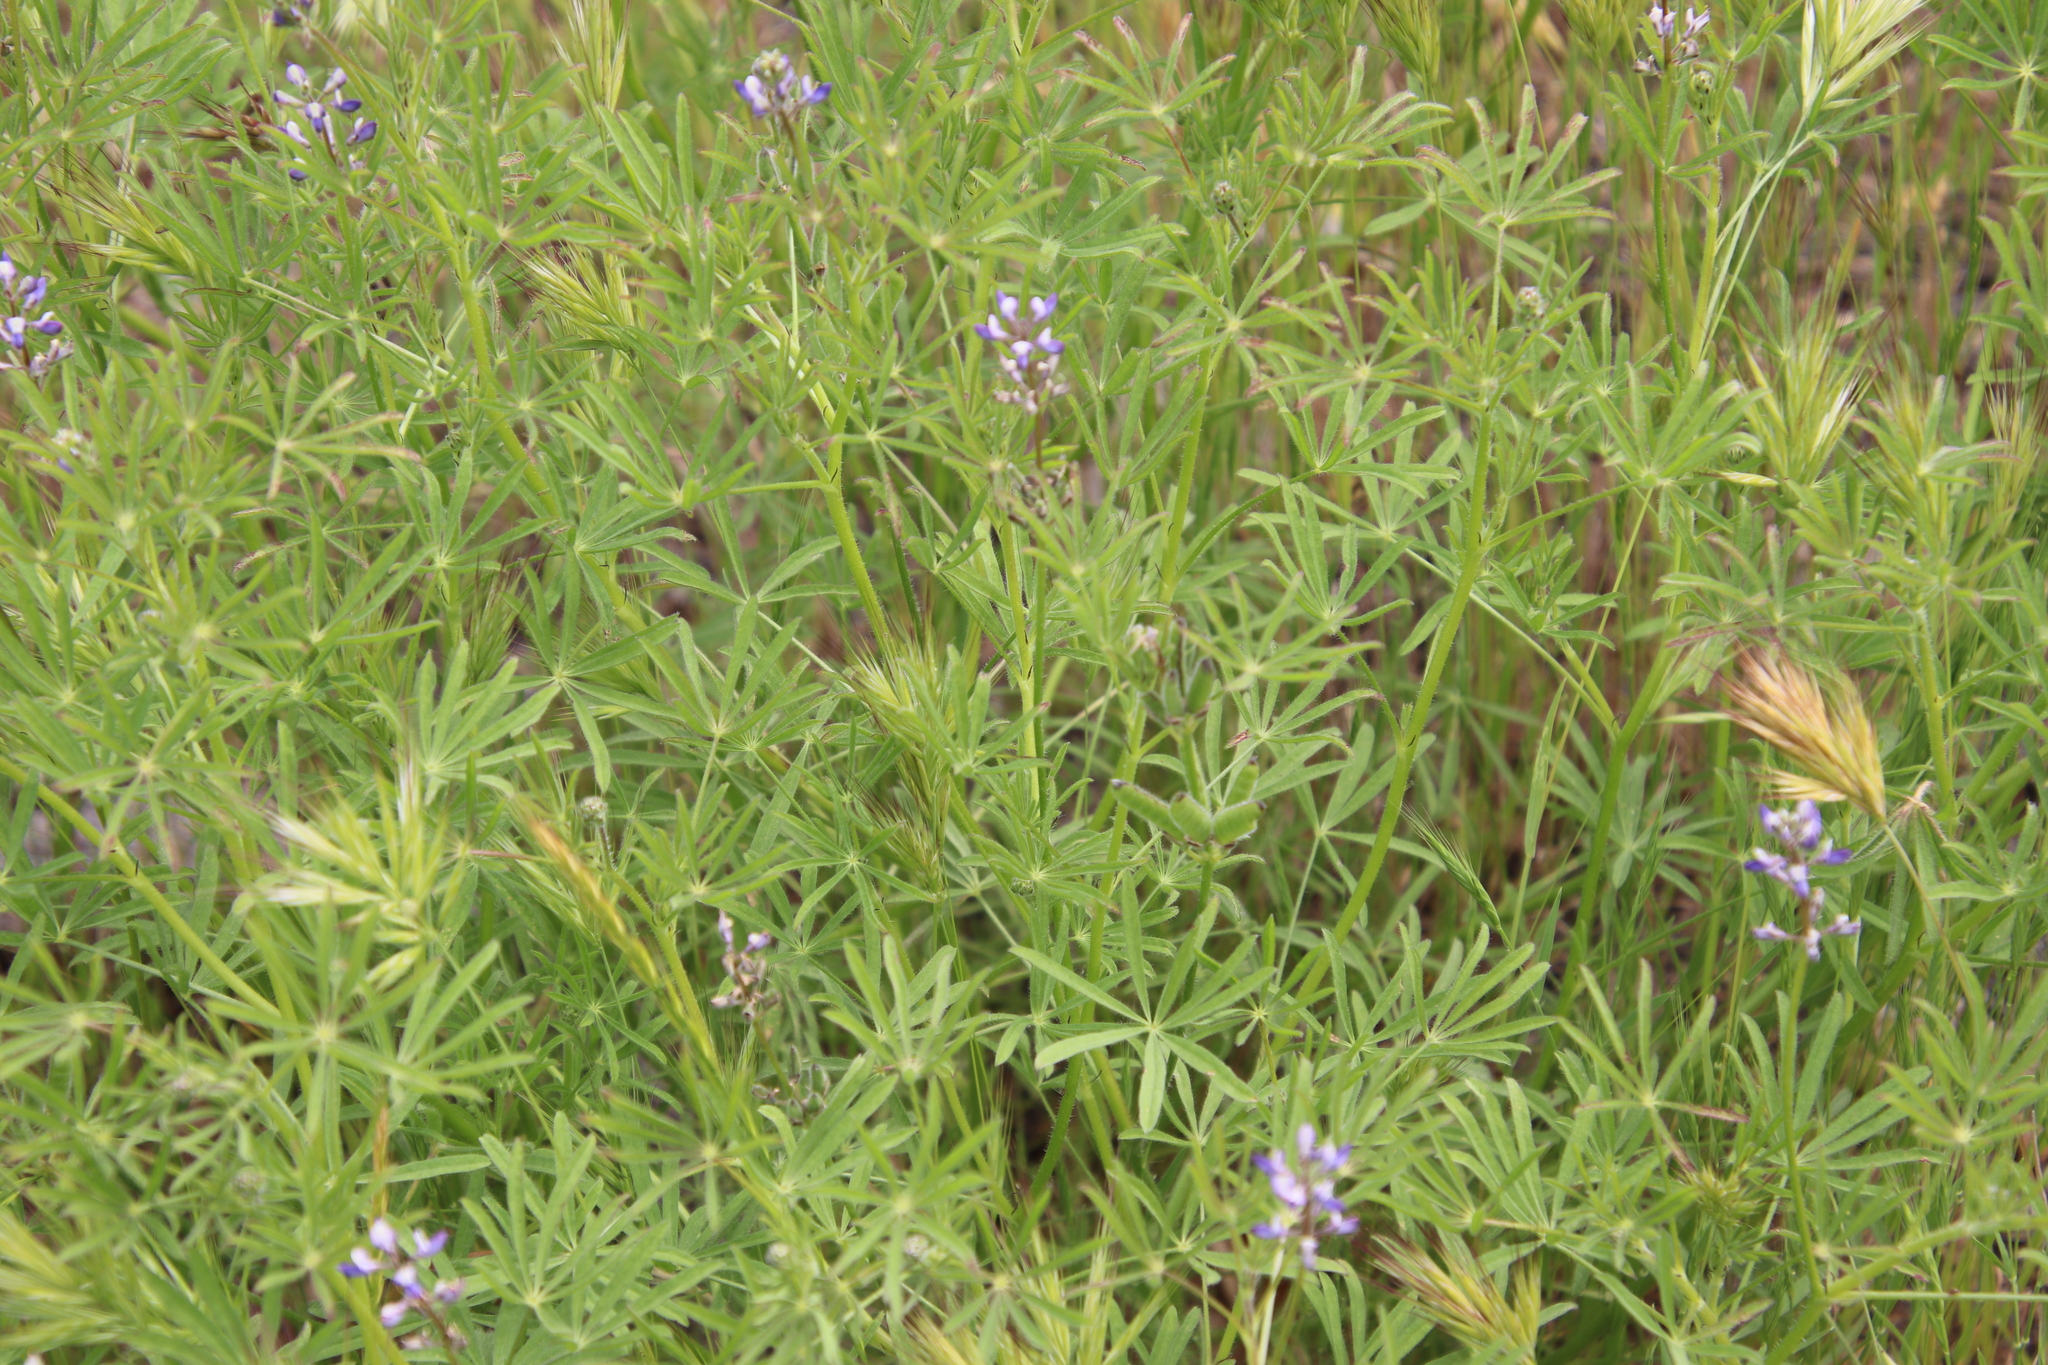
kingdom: Plantae
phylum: Tracheophyta
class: Magnoliopsida
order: Fabales
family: Fabaceae
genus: Lupinus
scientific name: Lupinus bicolor
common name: Miniature lupine
